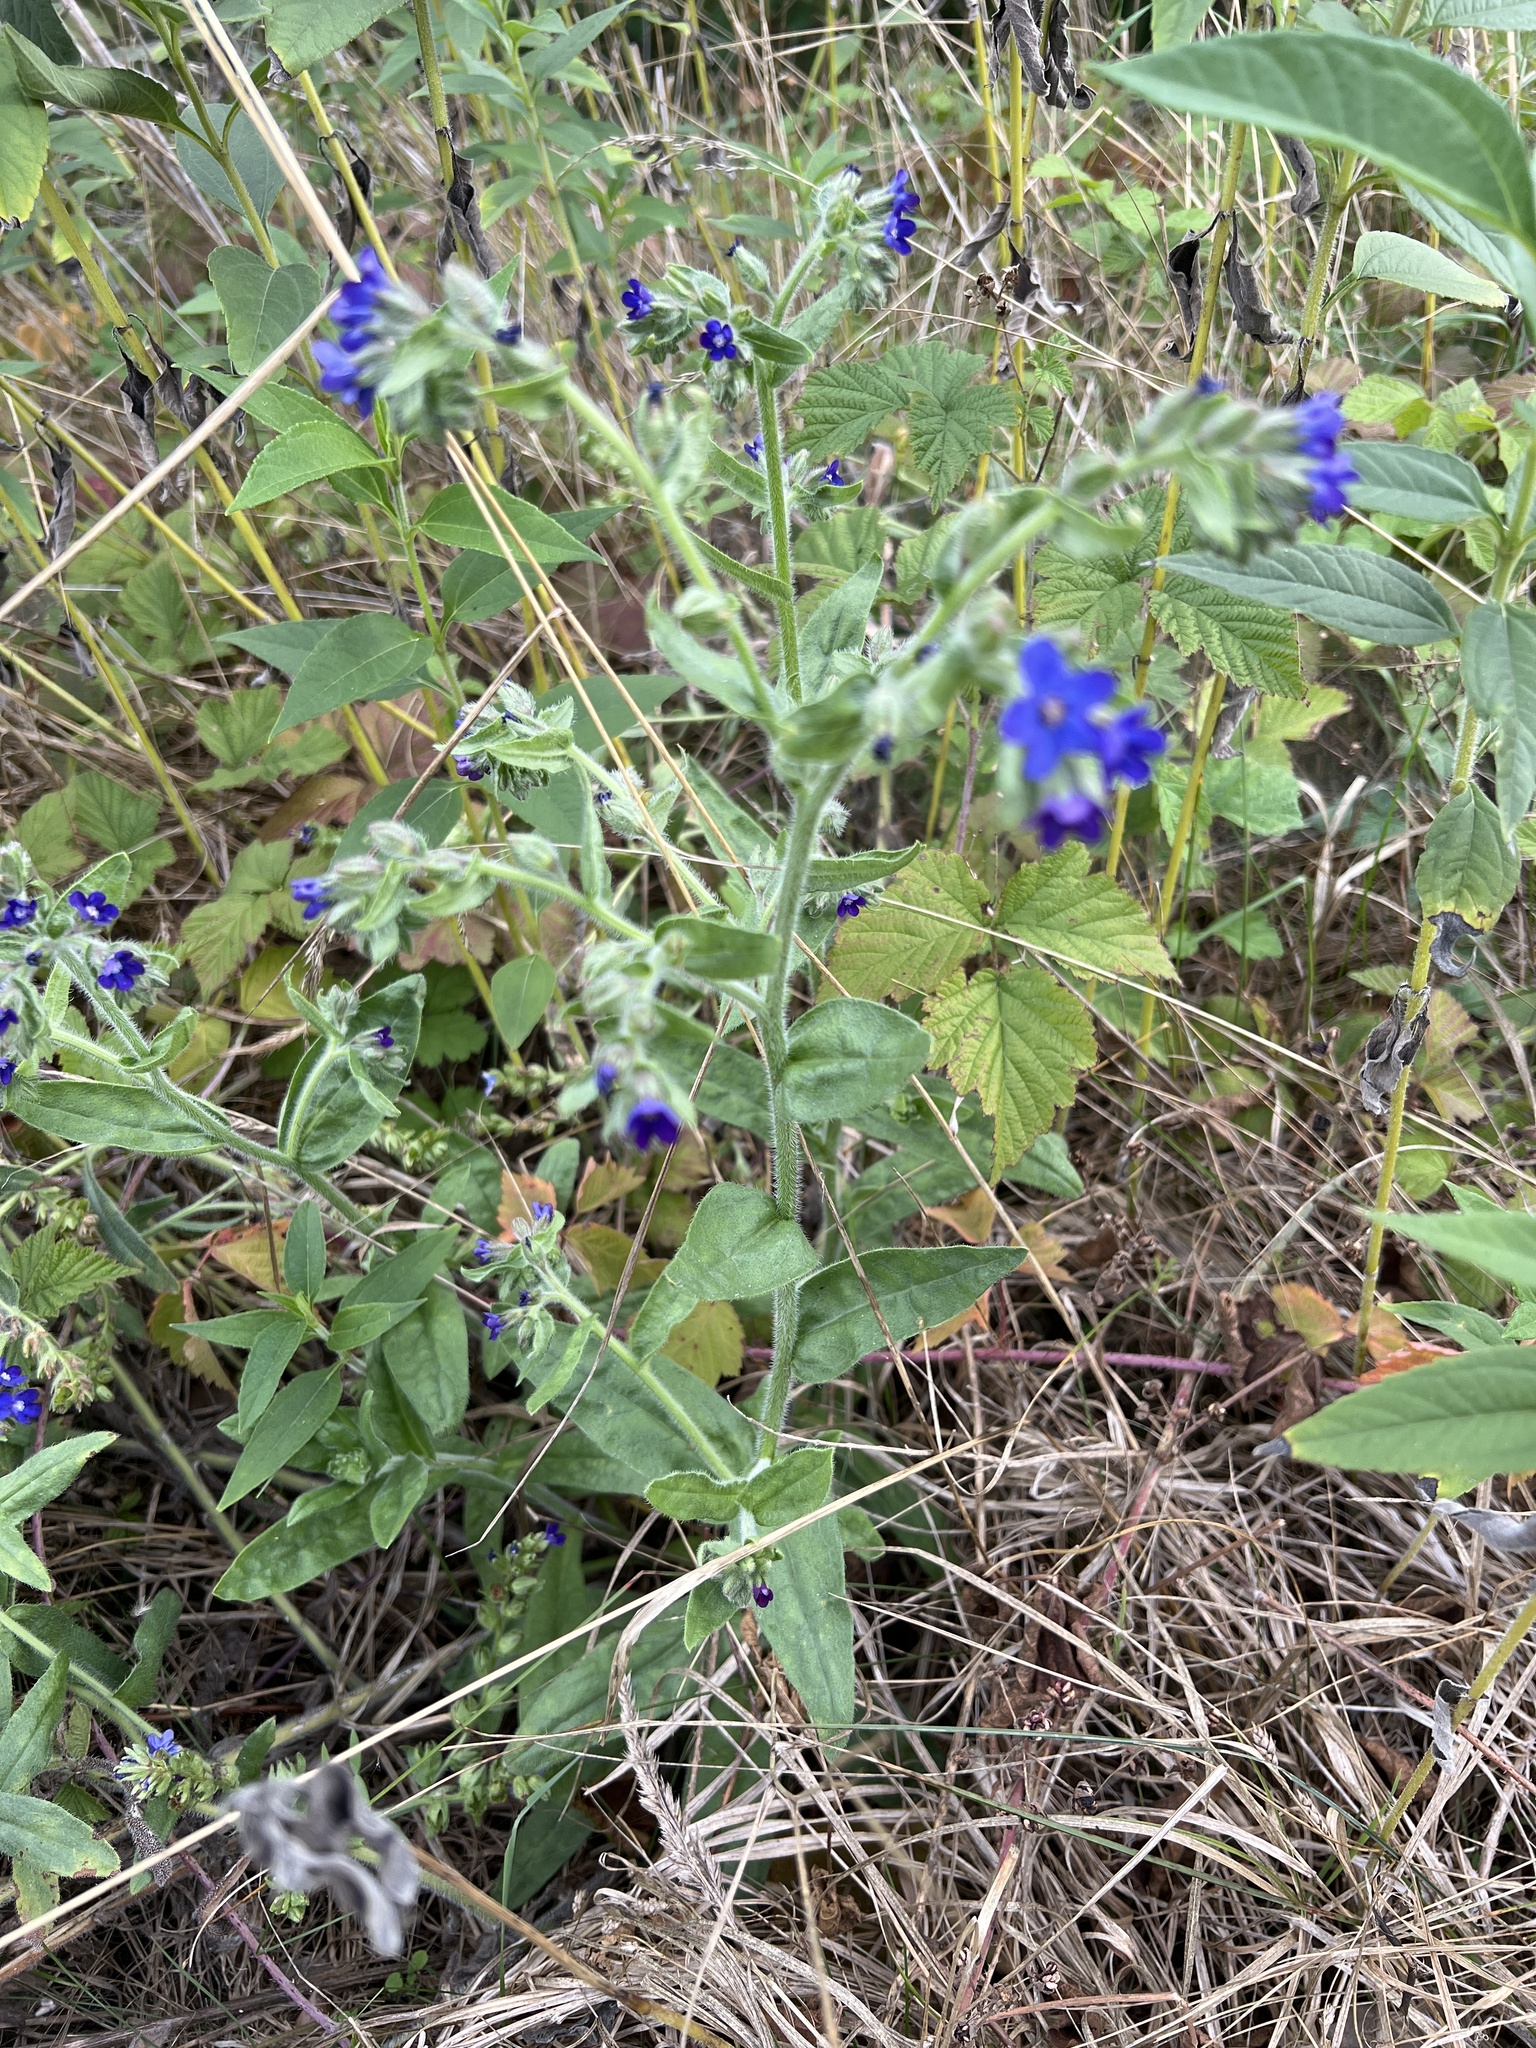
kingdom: Plantae
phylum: Tracheophyta
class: Magnoliopsida
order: Boraginales
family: Boraginaceae
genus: Anchusa
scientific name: Anchusa officinalis
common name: Alkanet
